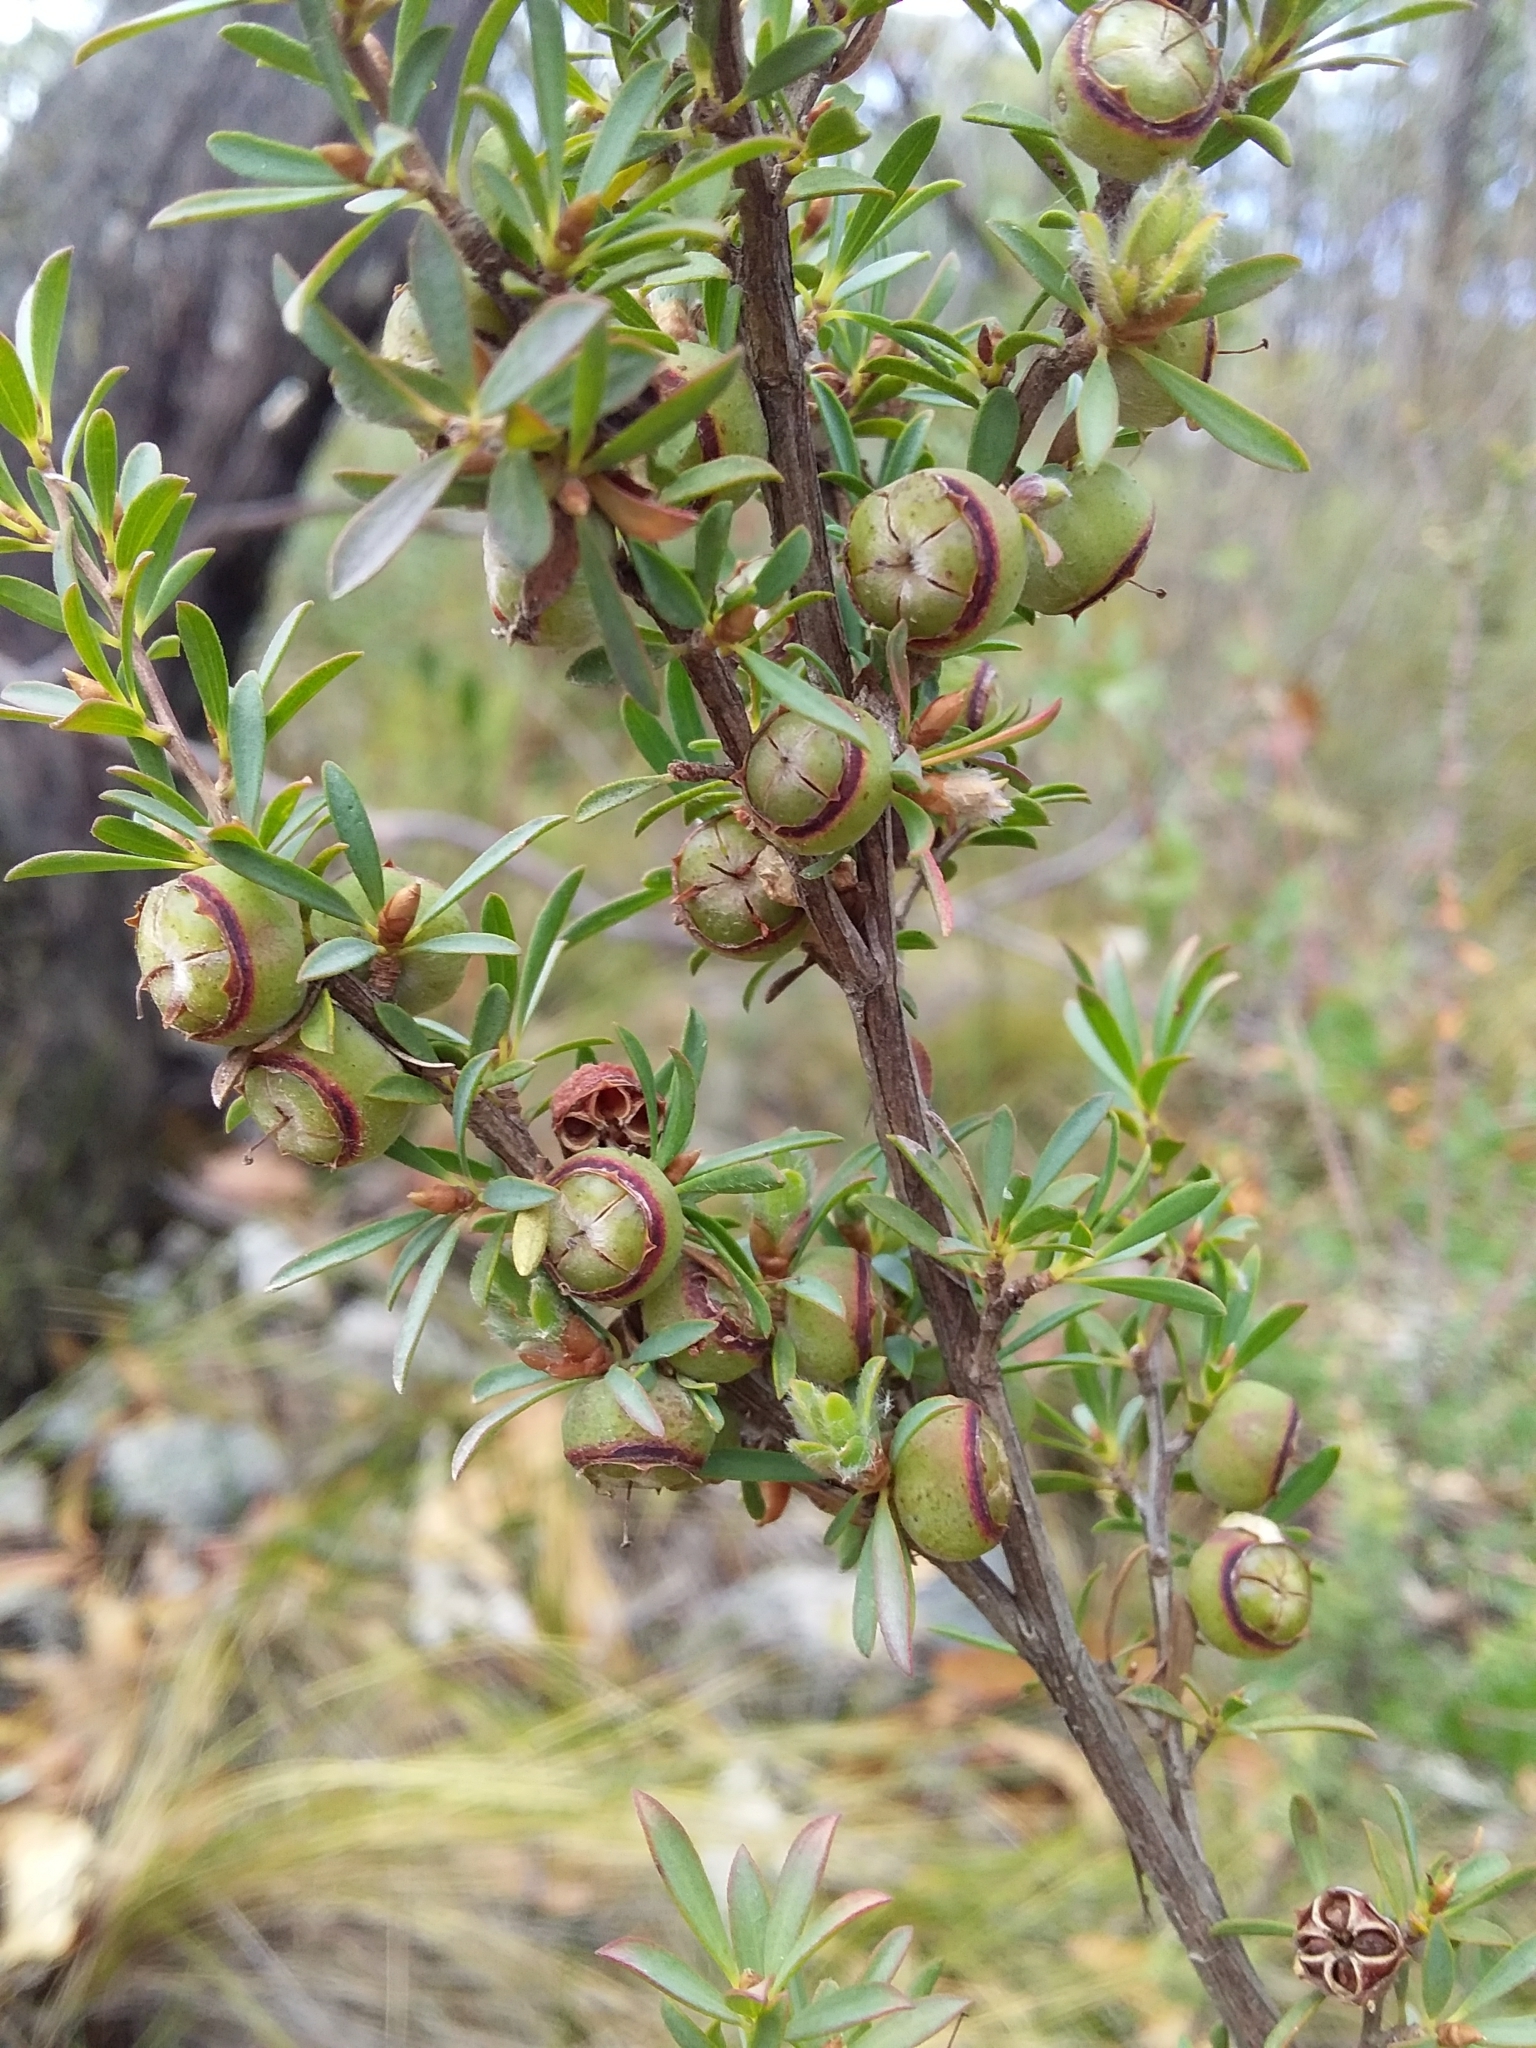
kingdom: Plantae
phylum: Tracheophyta
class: Magnoliopsida
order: Myrtales
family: Myrtaceae
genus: Leptospermum
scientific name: Leptospermum myrsinoides
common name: Heath teatree
